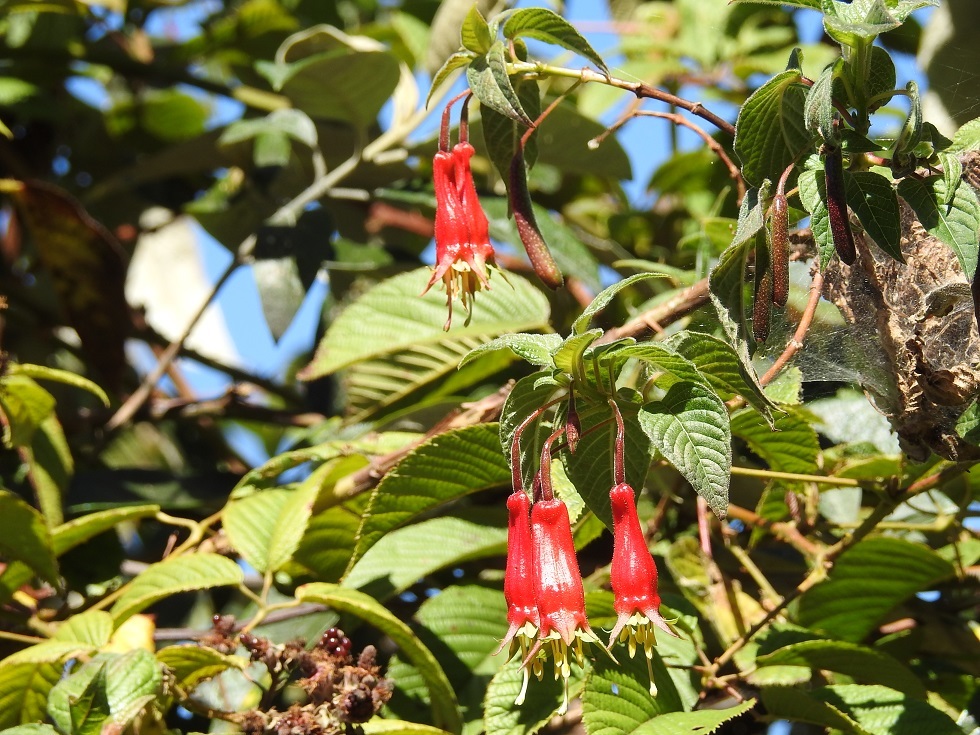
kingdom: Plantae
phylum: Tracheophyta
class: Magnoliopsida
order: Myrtales
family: Onagraceae
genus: Fuchsia
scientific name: Fuchsia splendens
